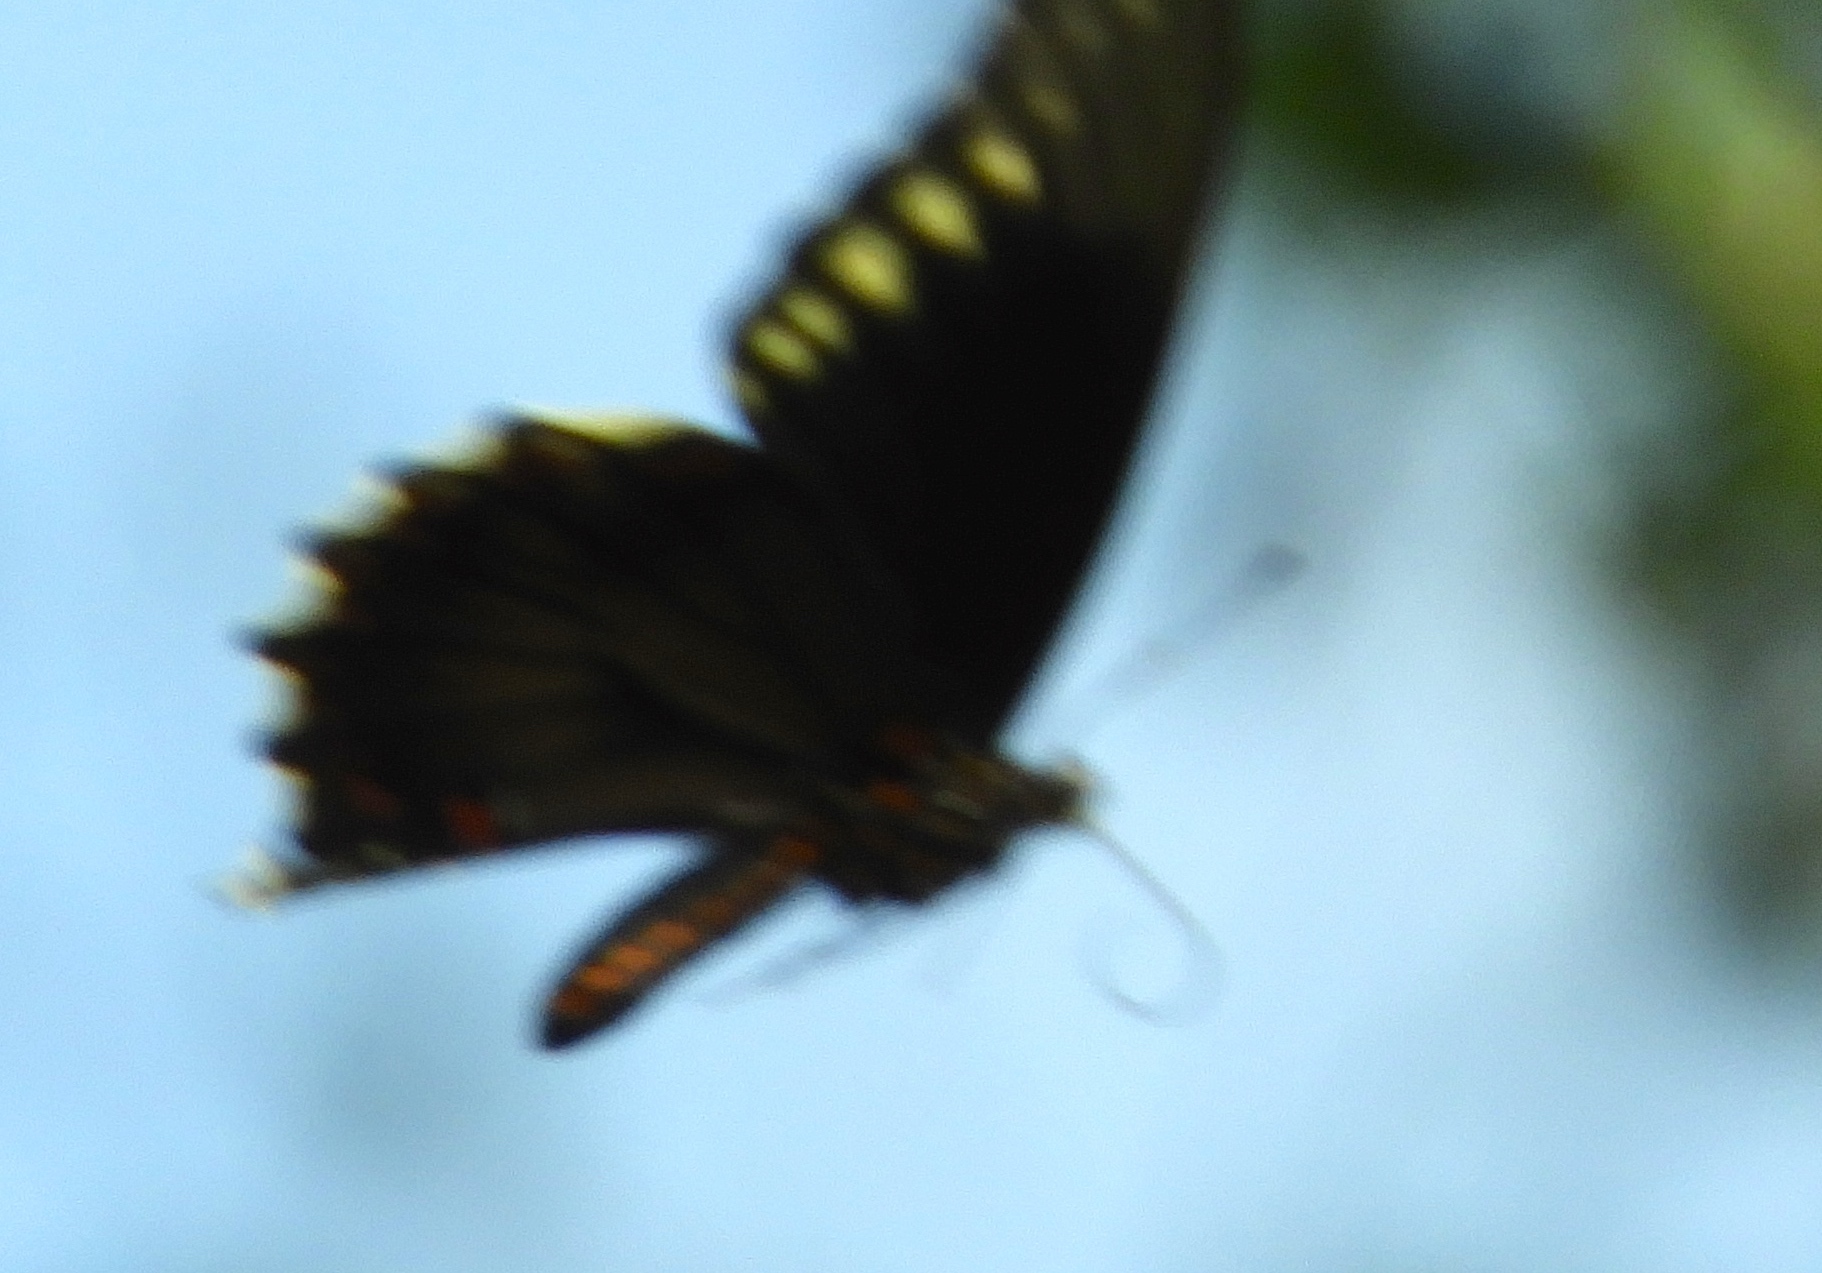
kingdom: Animalia
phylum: Arthropoda
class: Insecta
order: Lepidoptera
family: Papilionidae
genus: Battus
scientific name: Battus polydamas
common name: Polydamas swallowtail
